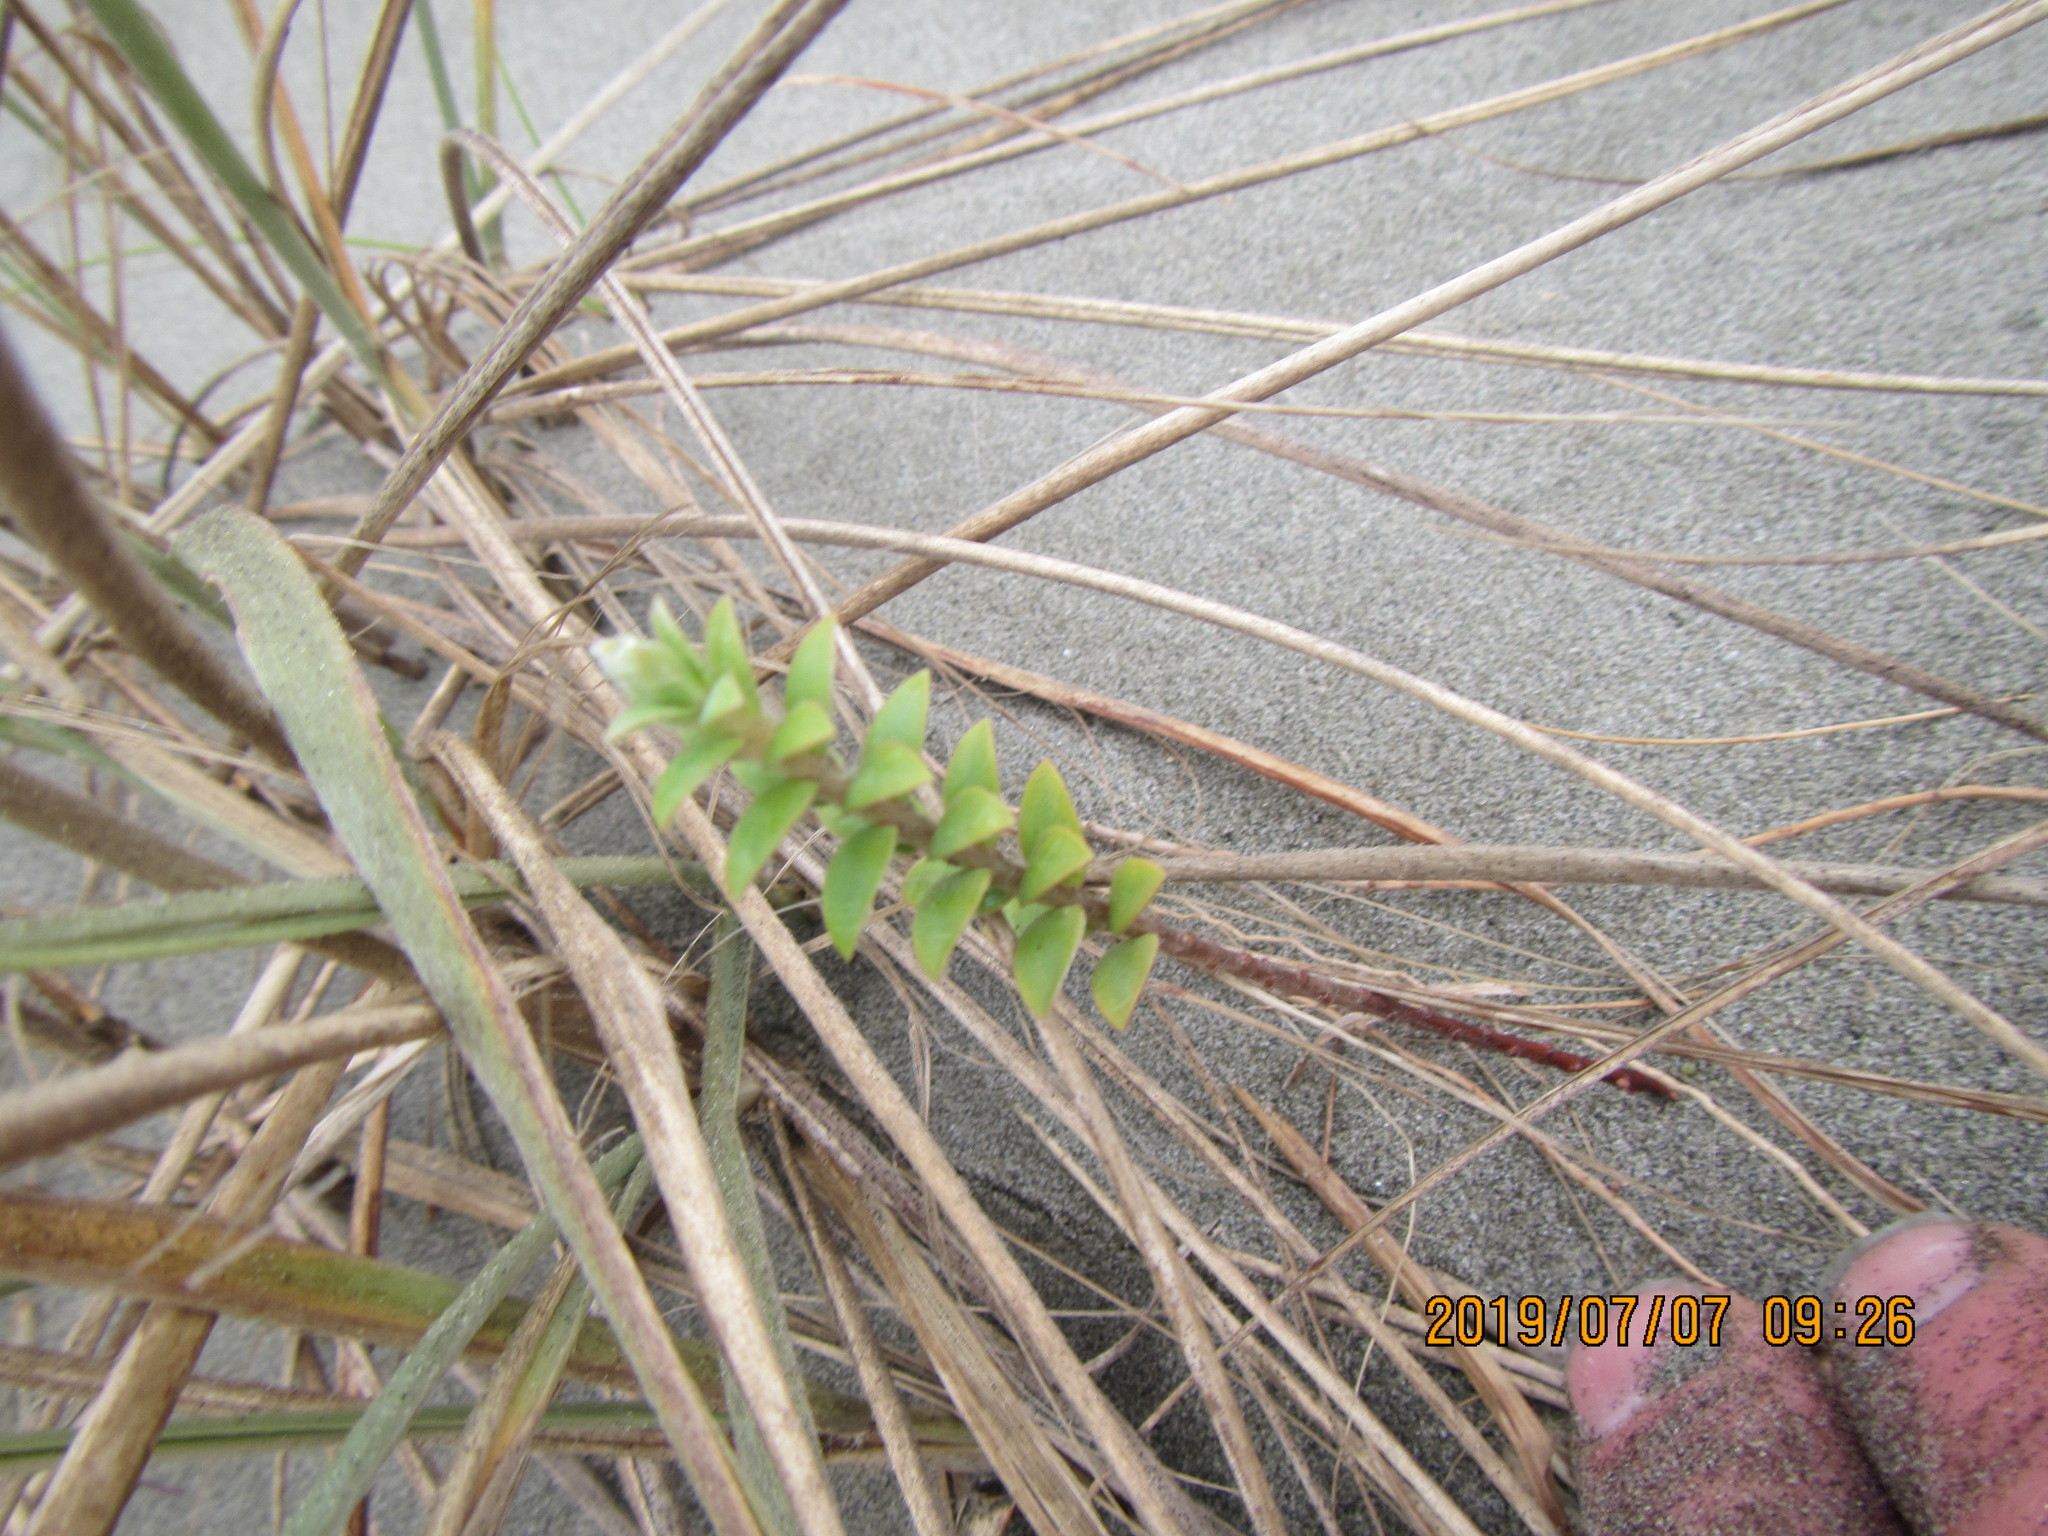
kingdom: Plantae
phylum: Tracheophyta
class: Magnoliopsida
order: Malvales
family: Thymelaeaceae
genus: Pimelea
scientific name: Pimelea villosa
